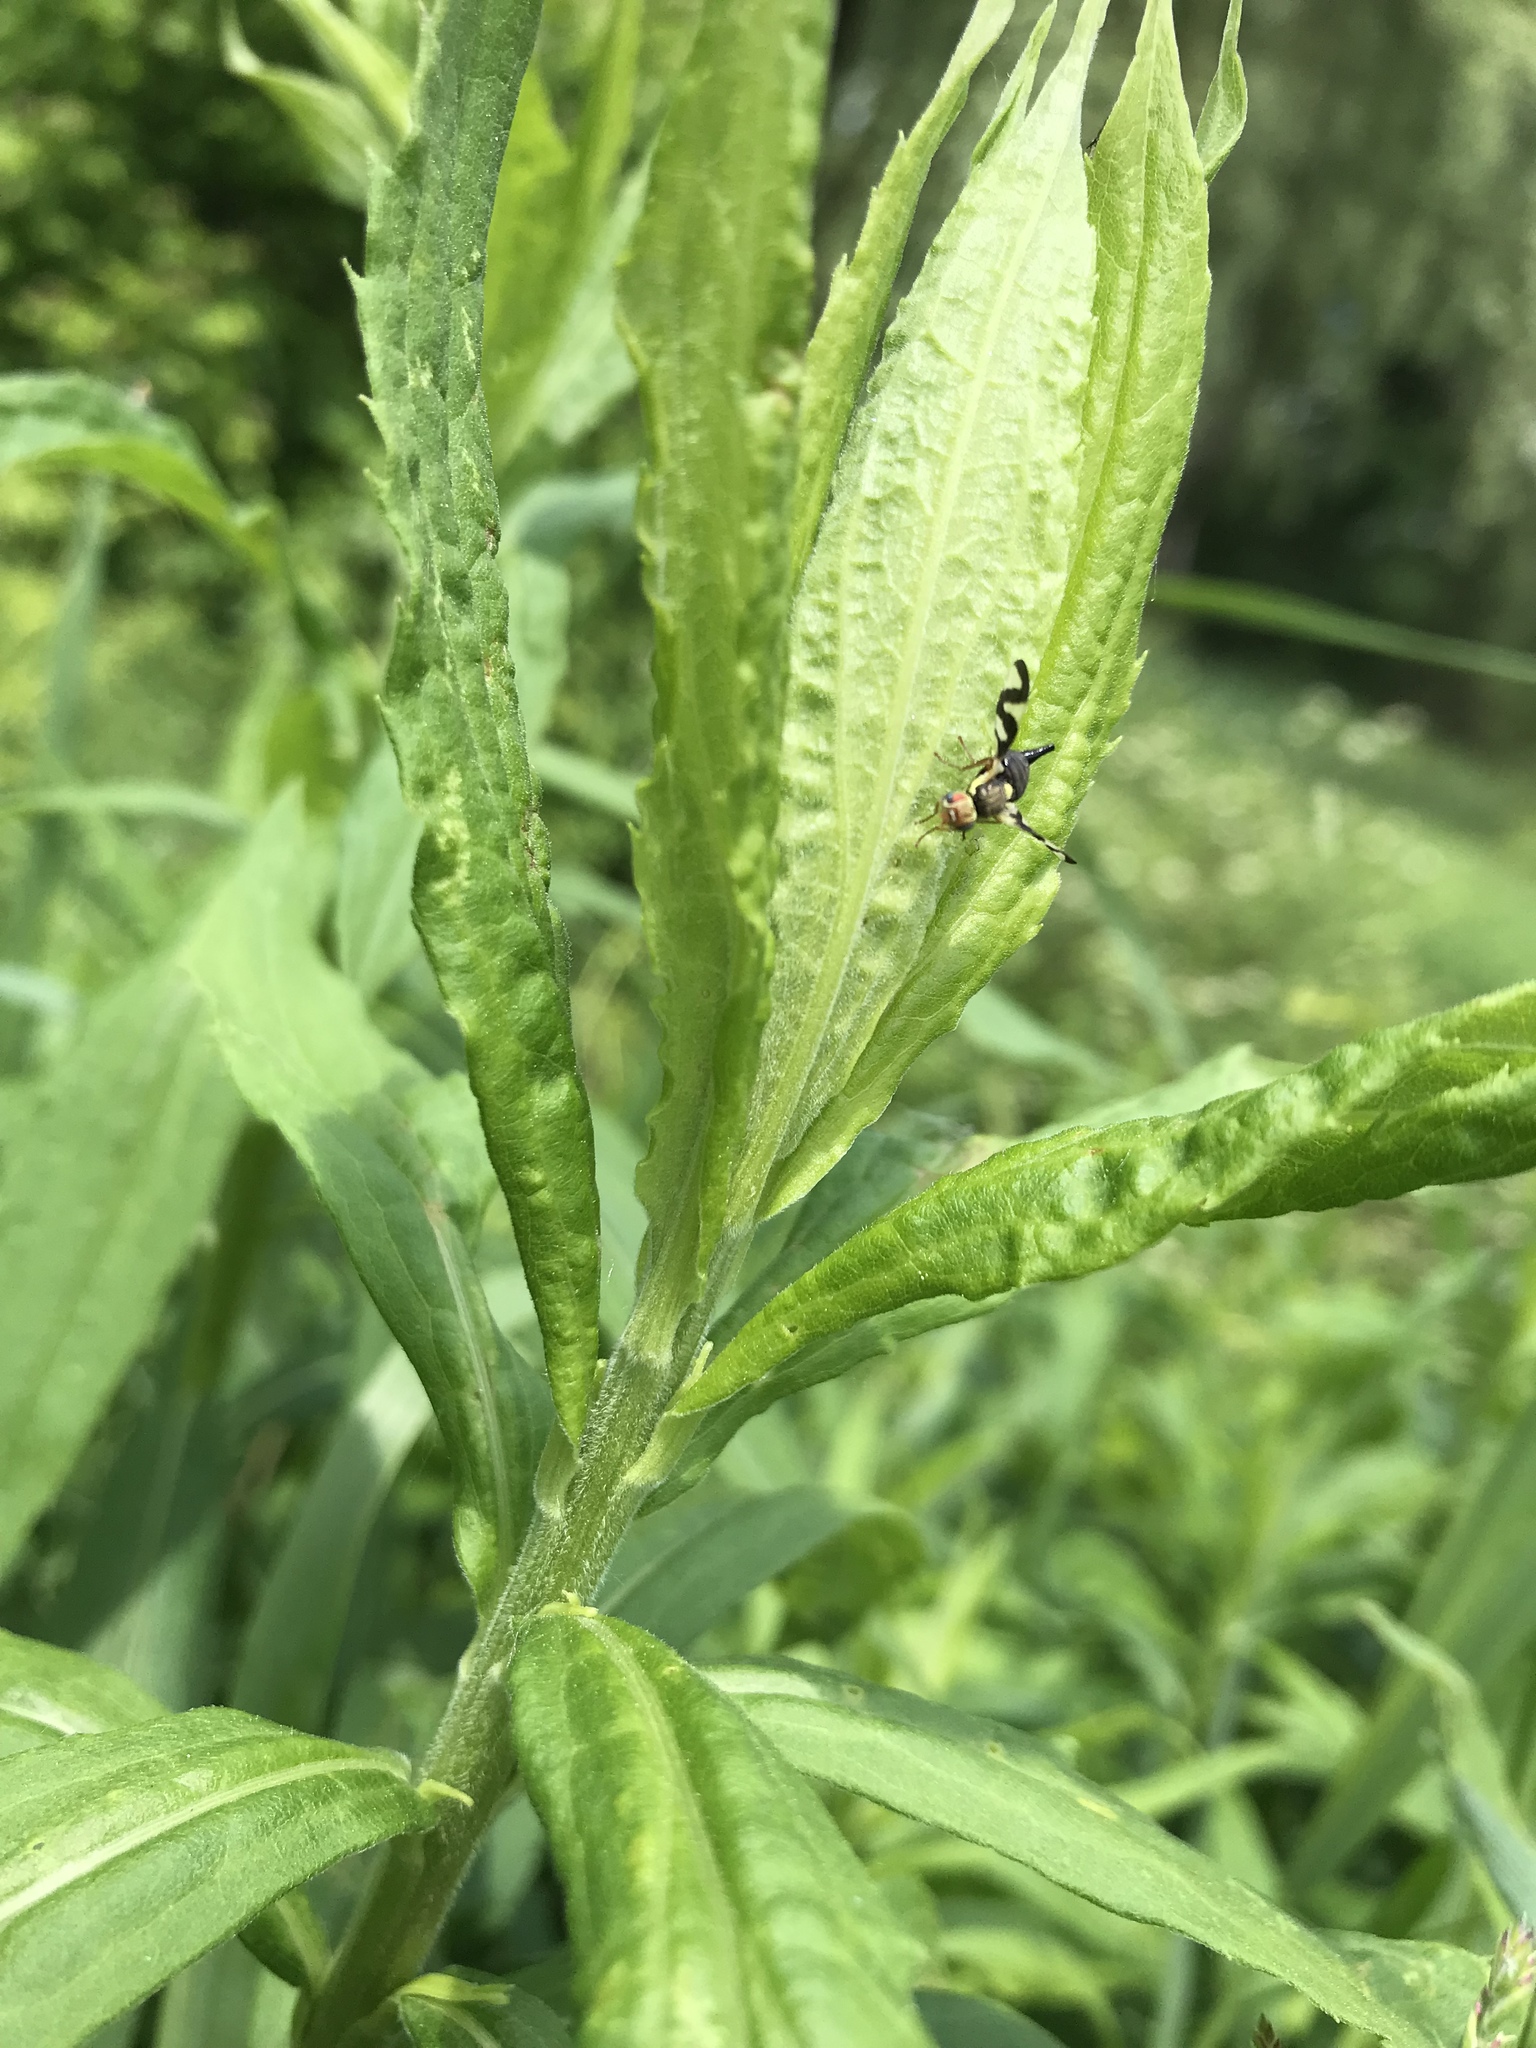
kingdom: Animalia
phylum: Arthropoda
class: Insecta
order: Diptera
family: Tephritidae
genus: Urophora
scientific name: Urophora cardui
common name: Fruit fly
